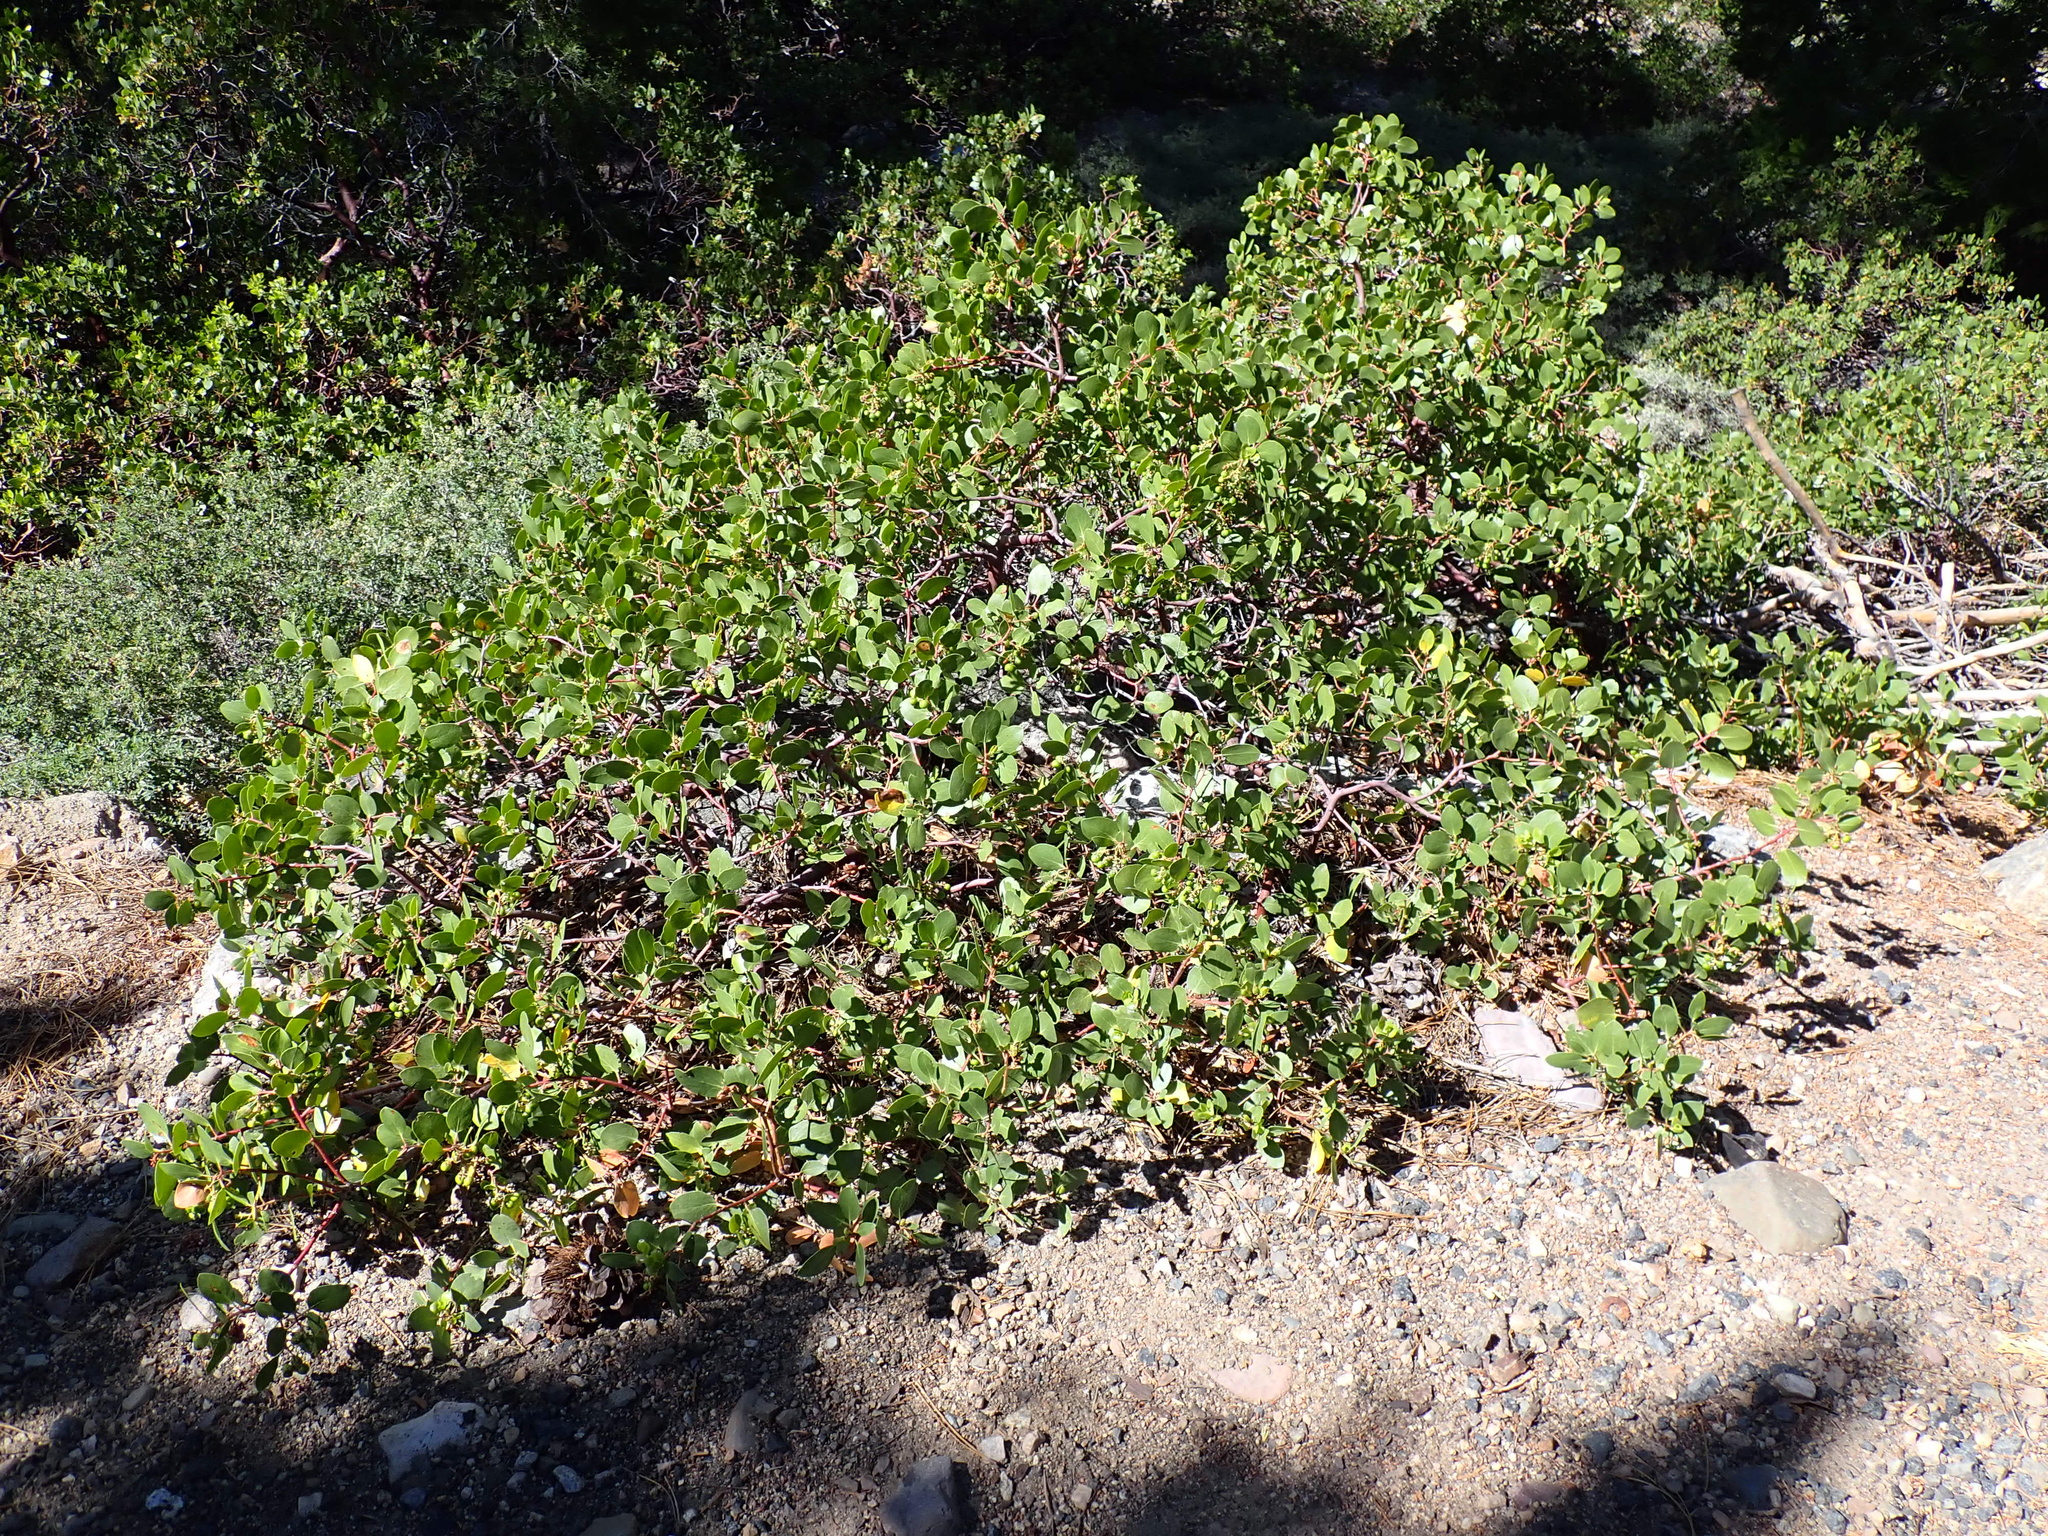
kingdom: Plantae
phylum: Tracheophyta
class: Magnoliopsida
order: Ericales
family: Ericaceae
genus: Arctostaphylos
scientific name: Arctostaphylos patula
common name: Green-leaf manzanita
